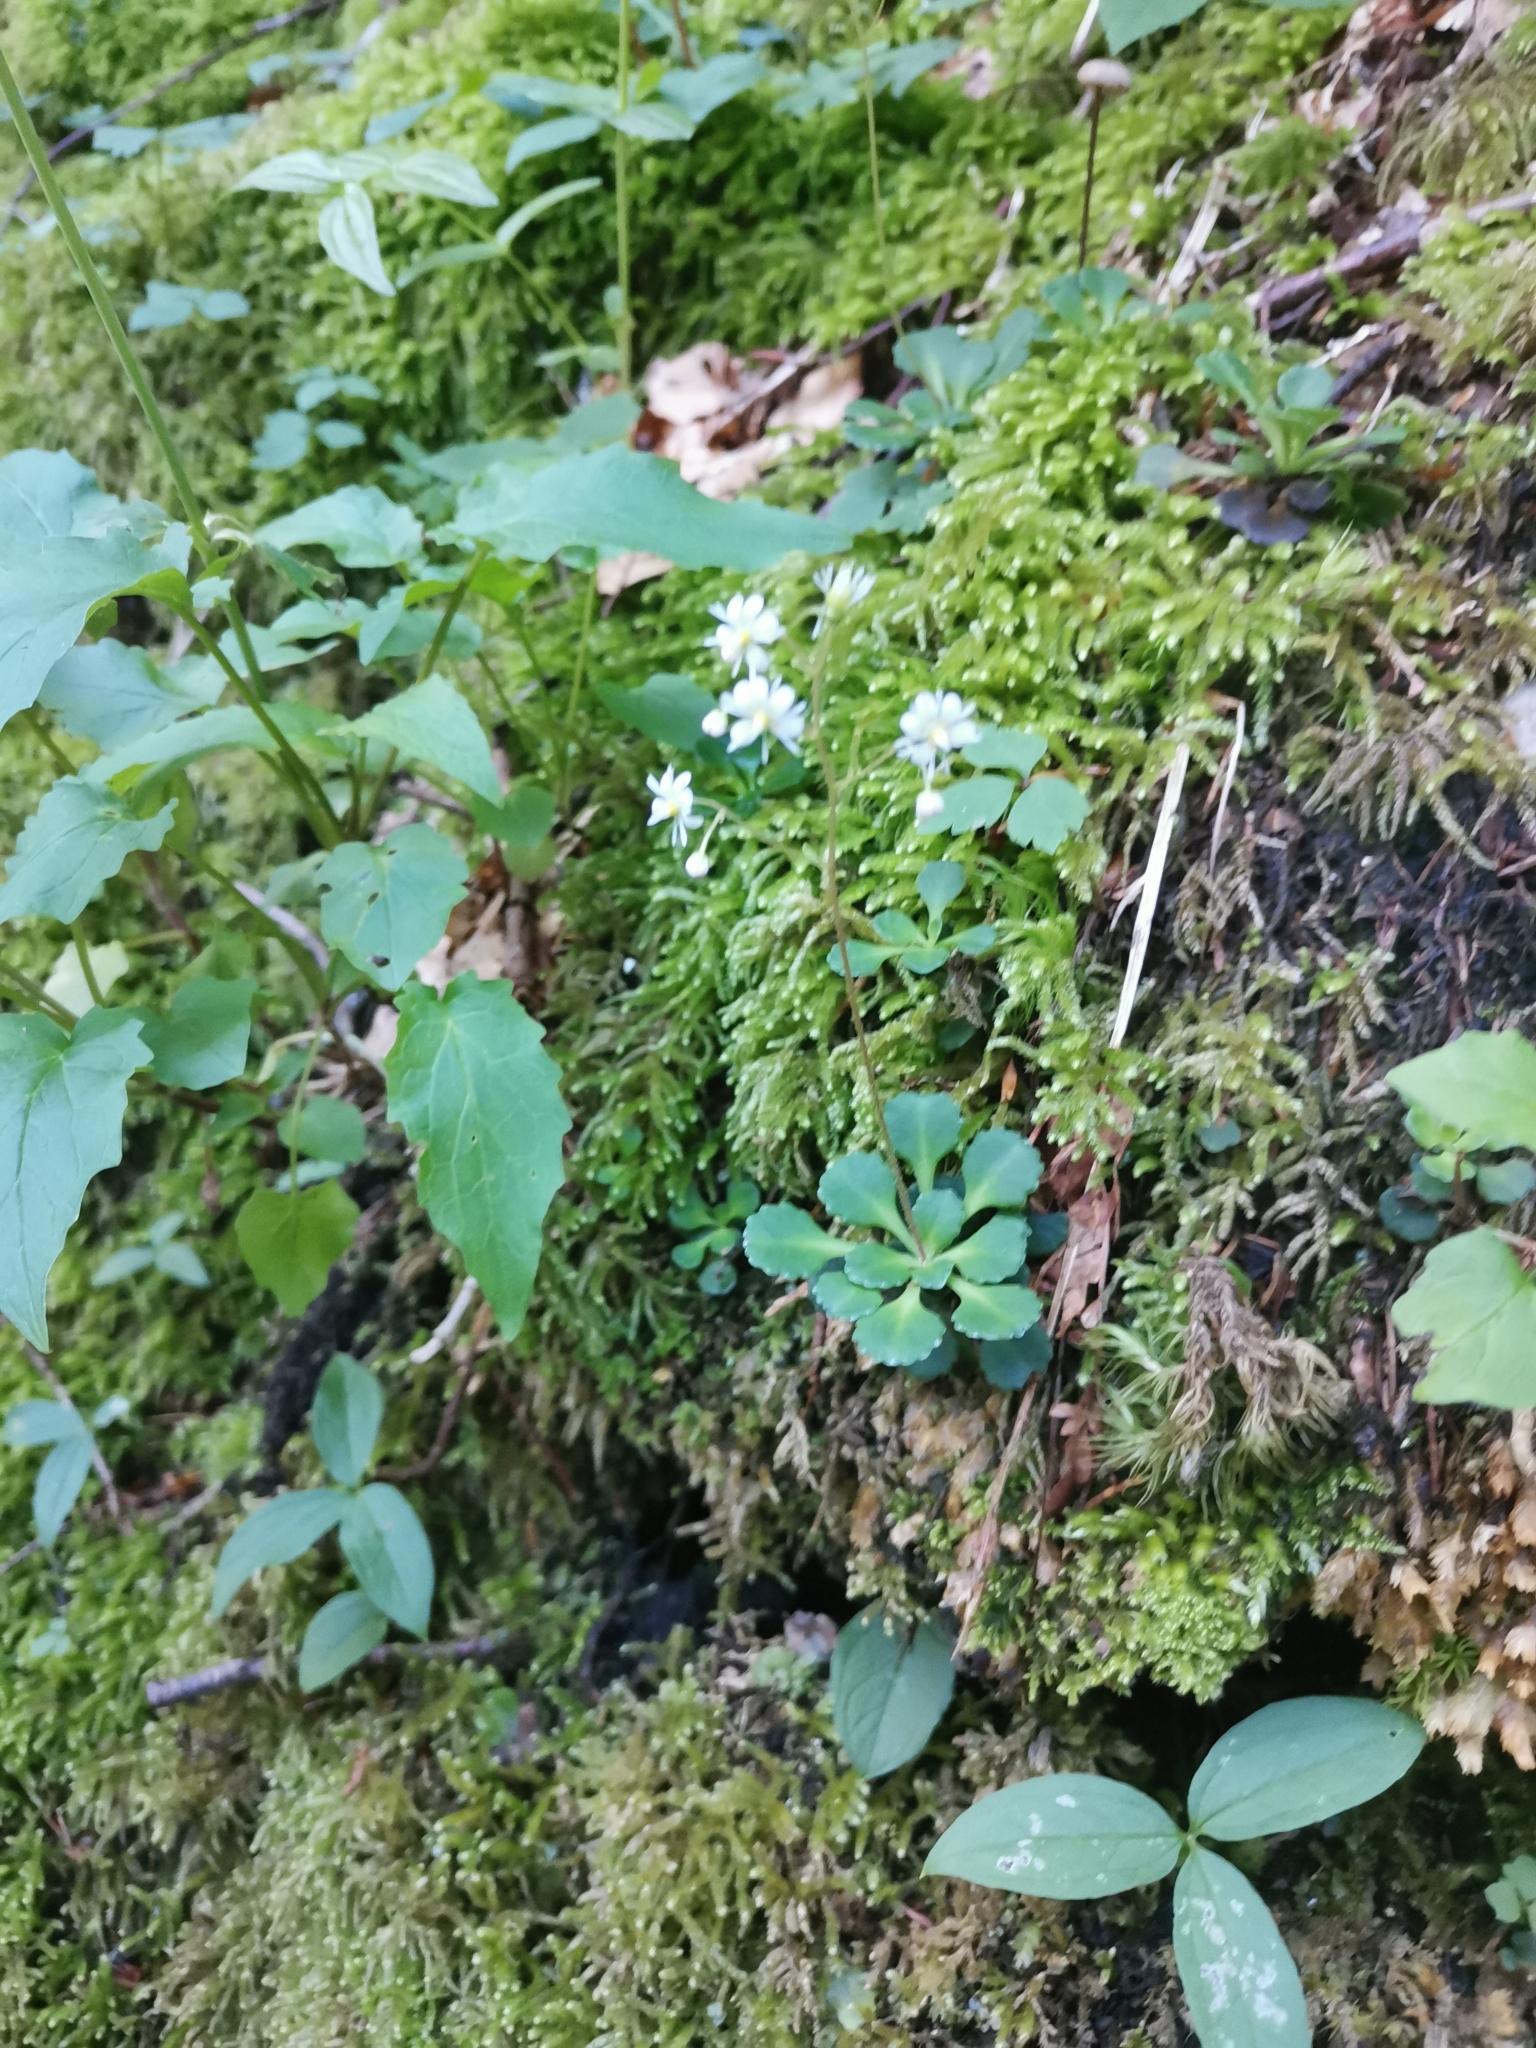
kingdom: Plantae
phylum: Tracheophyta
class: Magnoliopsida
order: Saxifragales
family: Saxifragaceae
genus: Saxifraga
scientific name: Saxifraga cuneifolia
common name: Lesser londonpride
